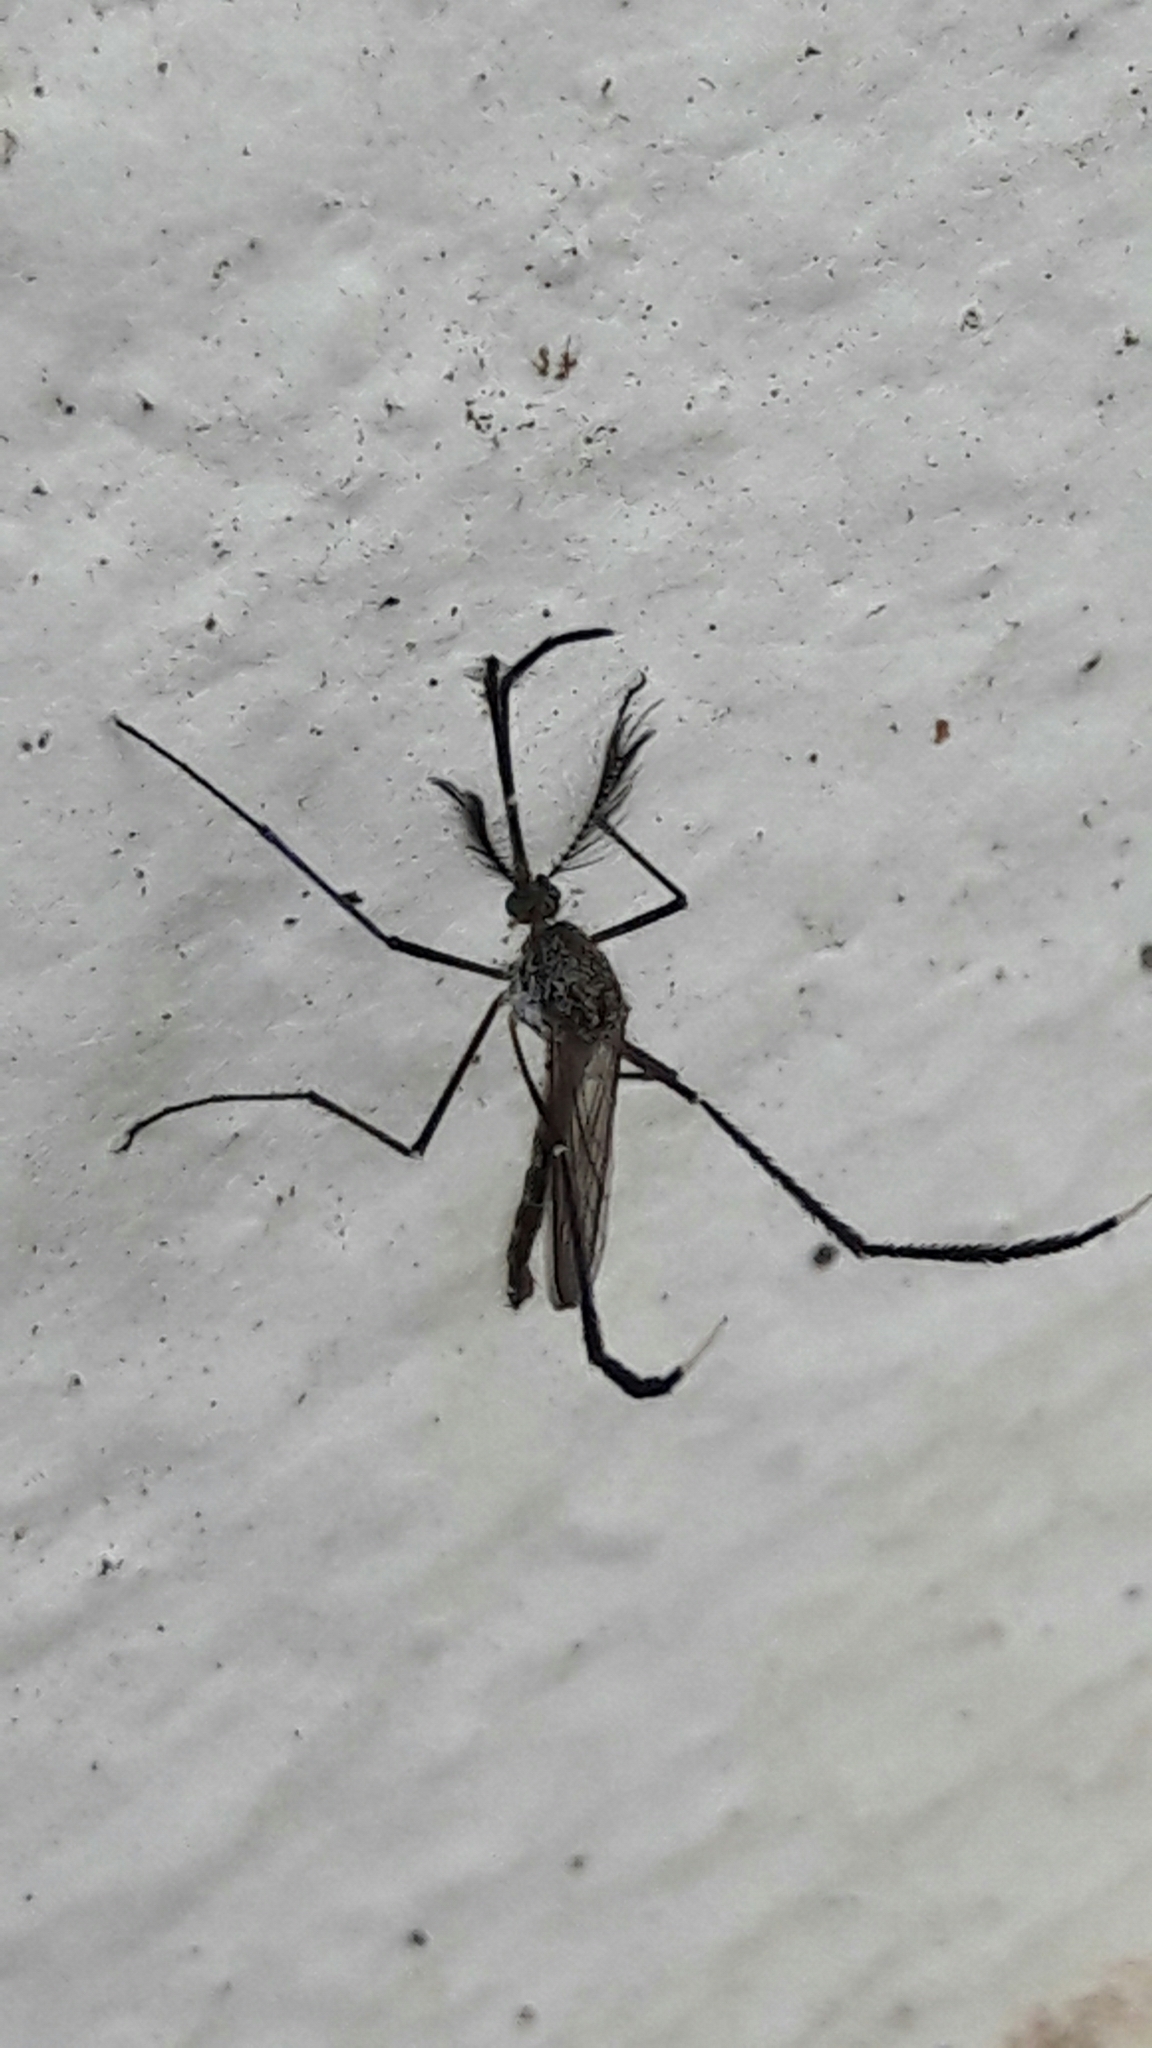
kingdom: Animalia
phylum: Arthropoda
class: Insecta
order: Diptera
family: Culicidae
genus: Psorophora
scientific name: Psorophora ferox
